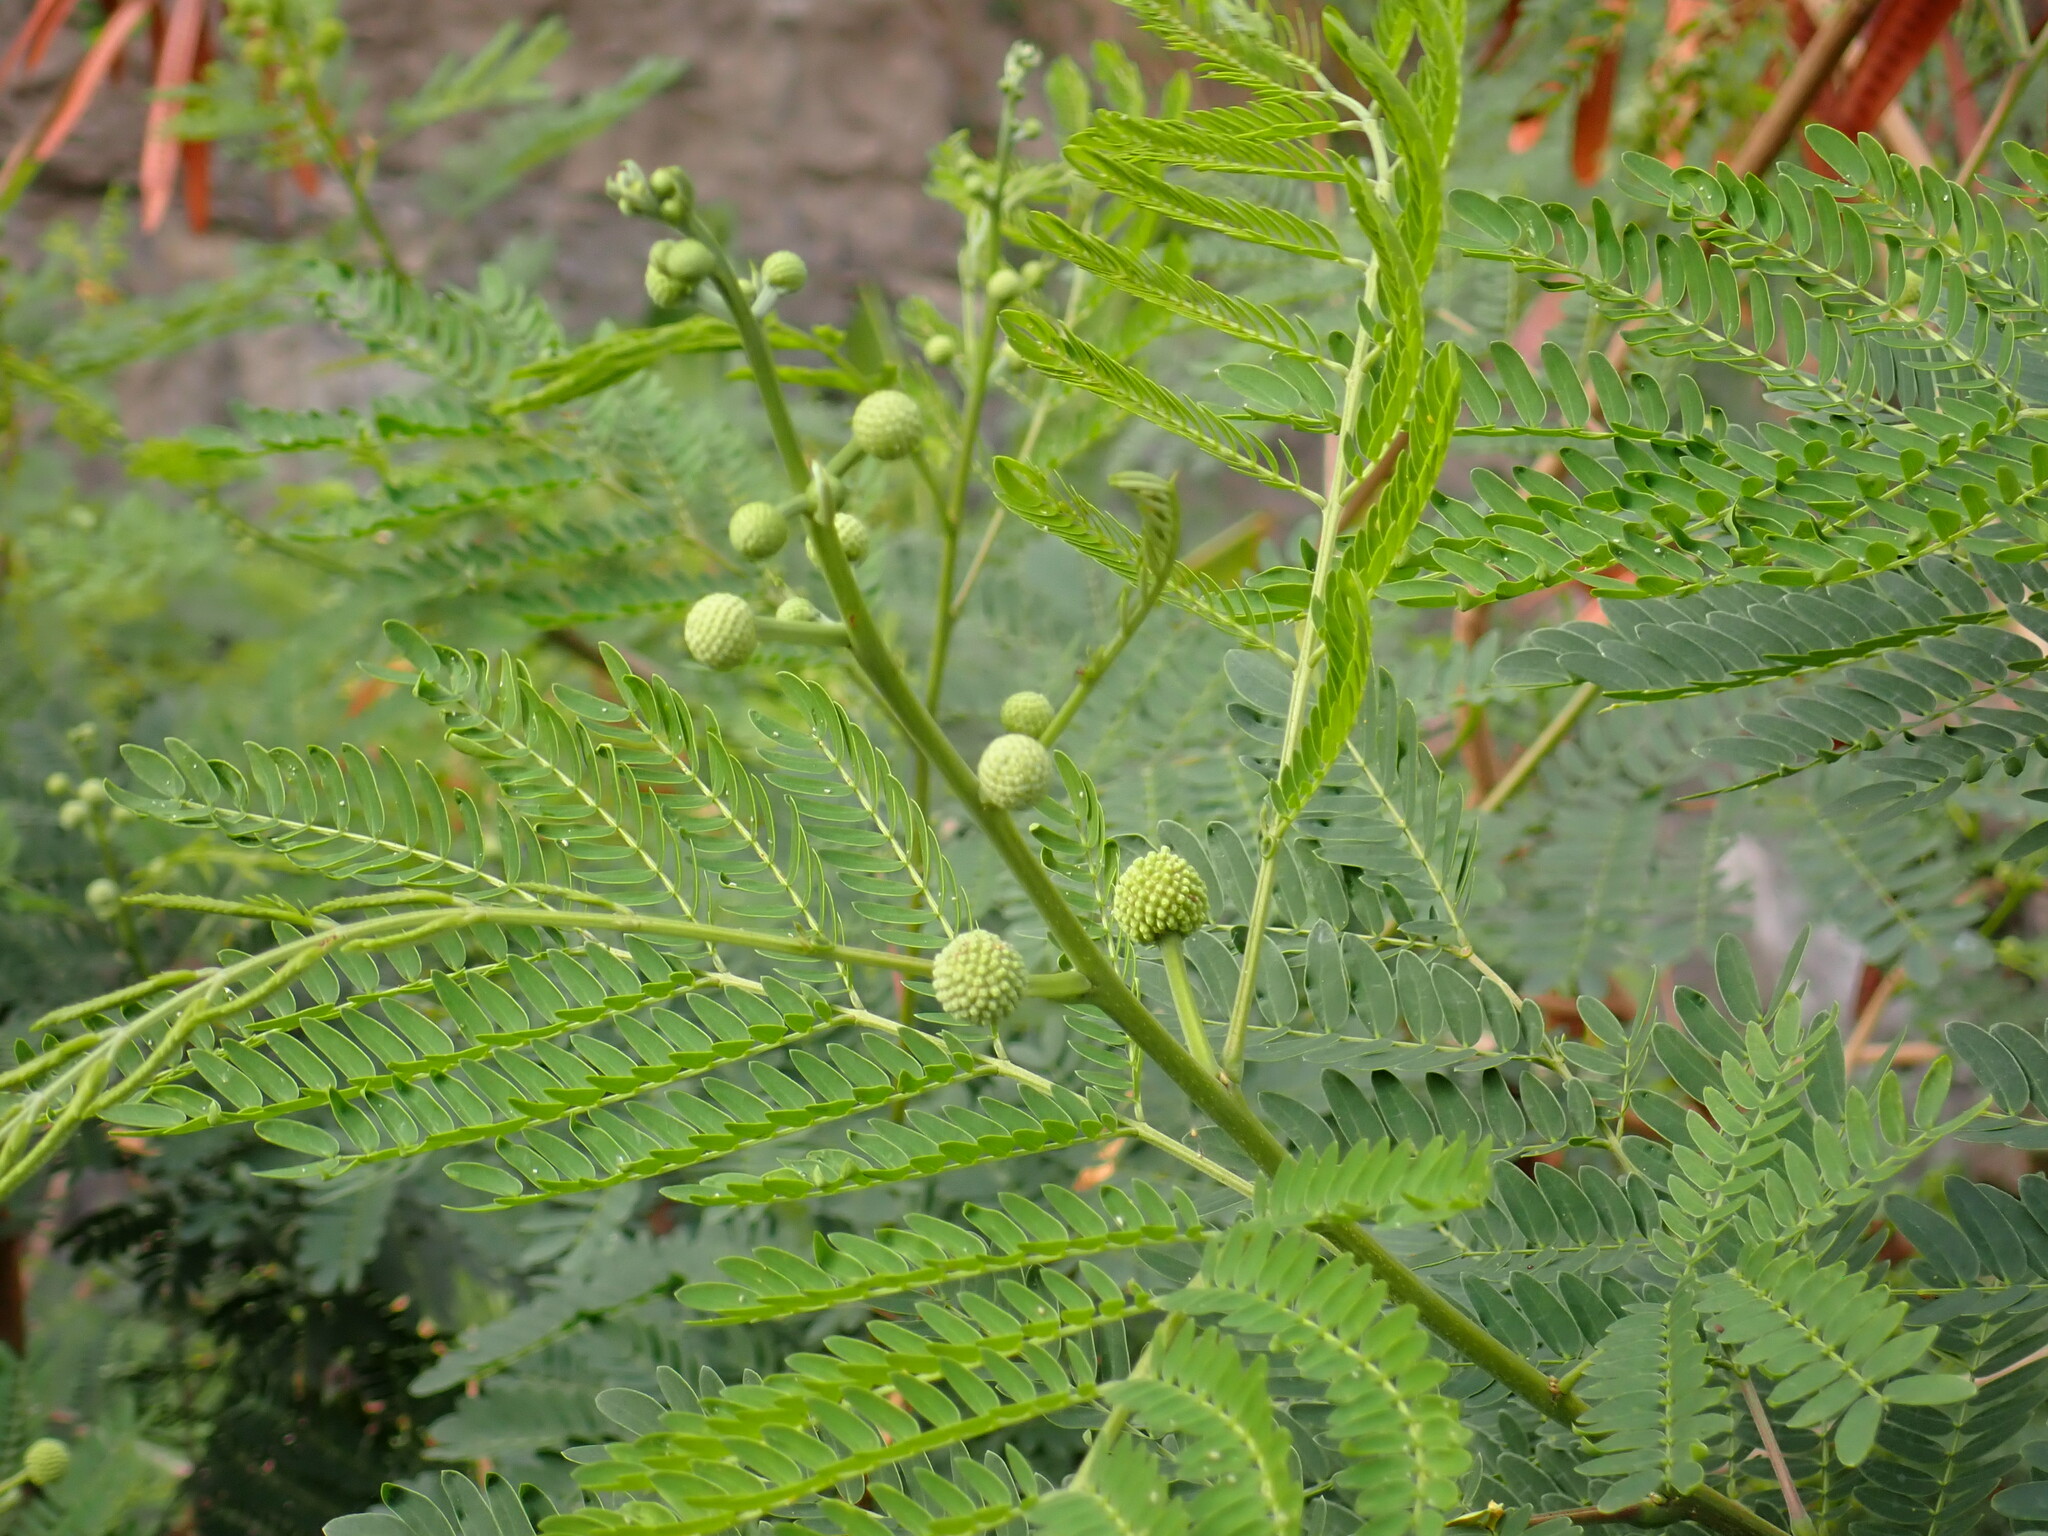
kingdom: Plantae
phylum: Tracheophyta
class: Magnoliopsida
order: Fabales
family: Fabaceae
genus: Leucaena
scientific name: Leucaena leucocephala
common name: White leadtree
